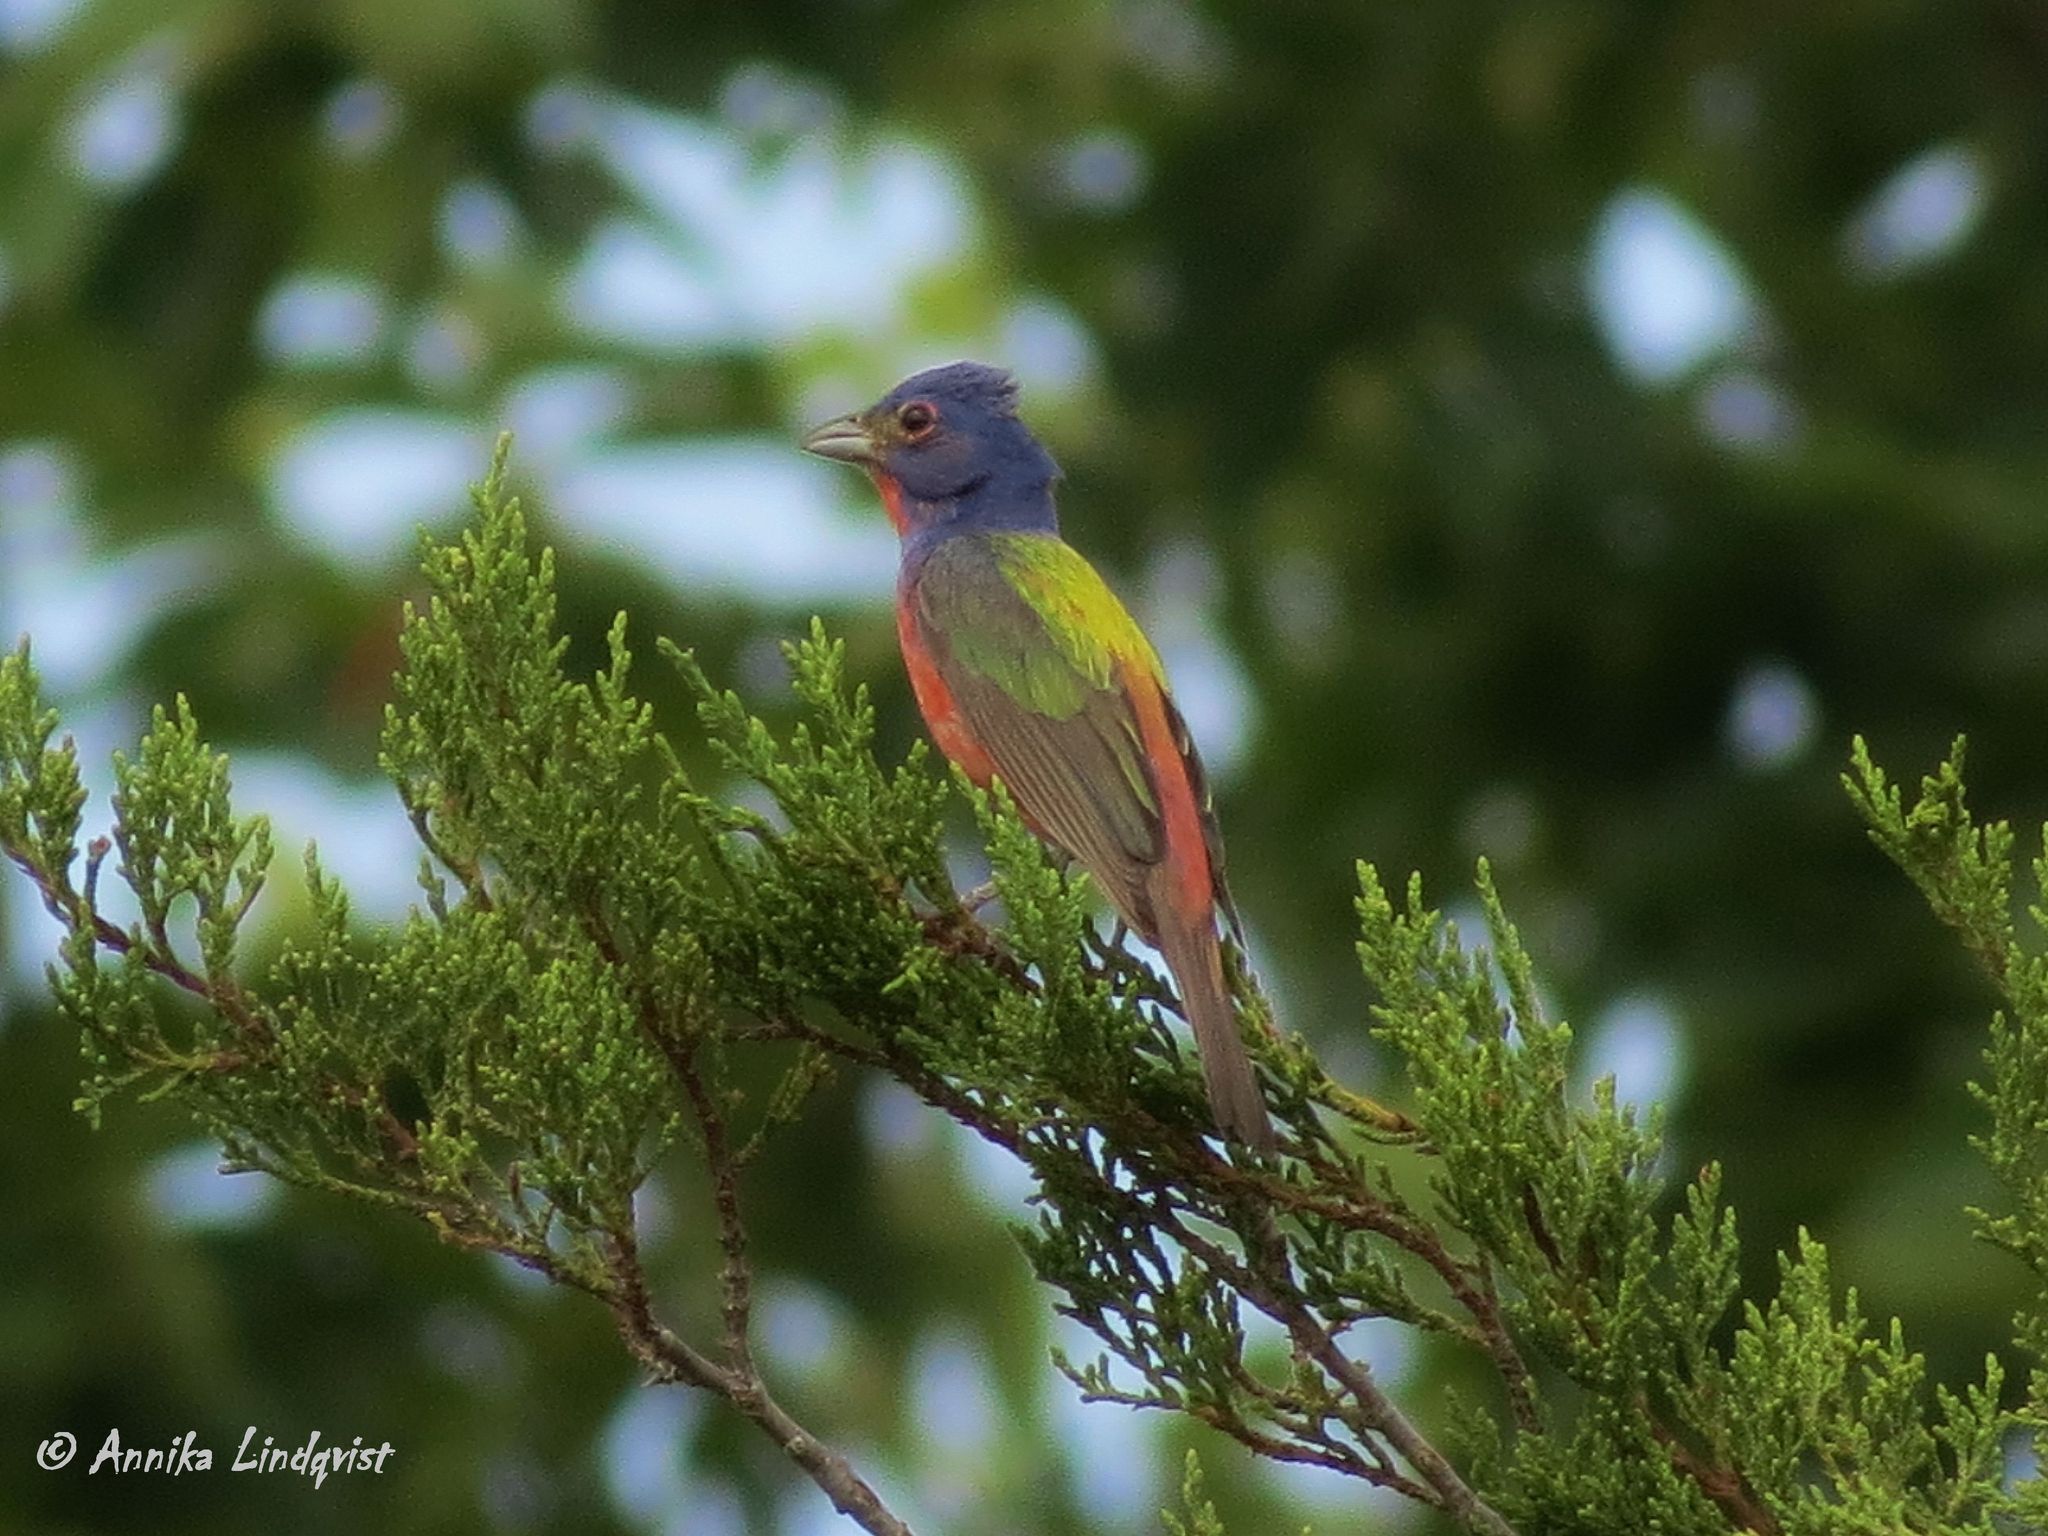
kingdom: Animalia
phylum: Chordata
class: Aves
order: Passeriformes
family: Cardinalidae
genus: Passerina
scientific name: Passerina ciris
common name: Painted bunting
